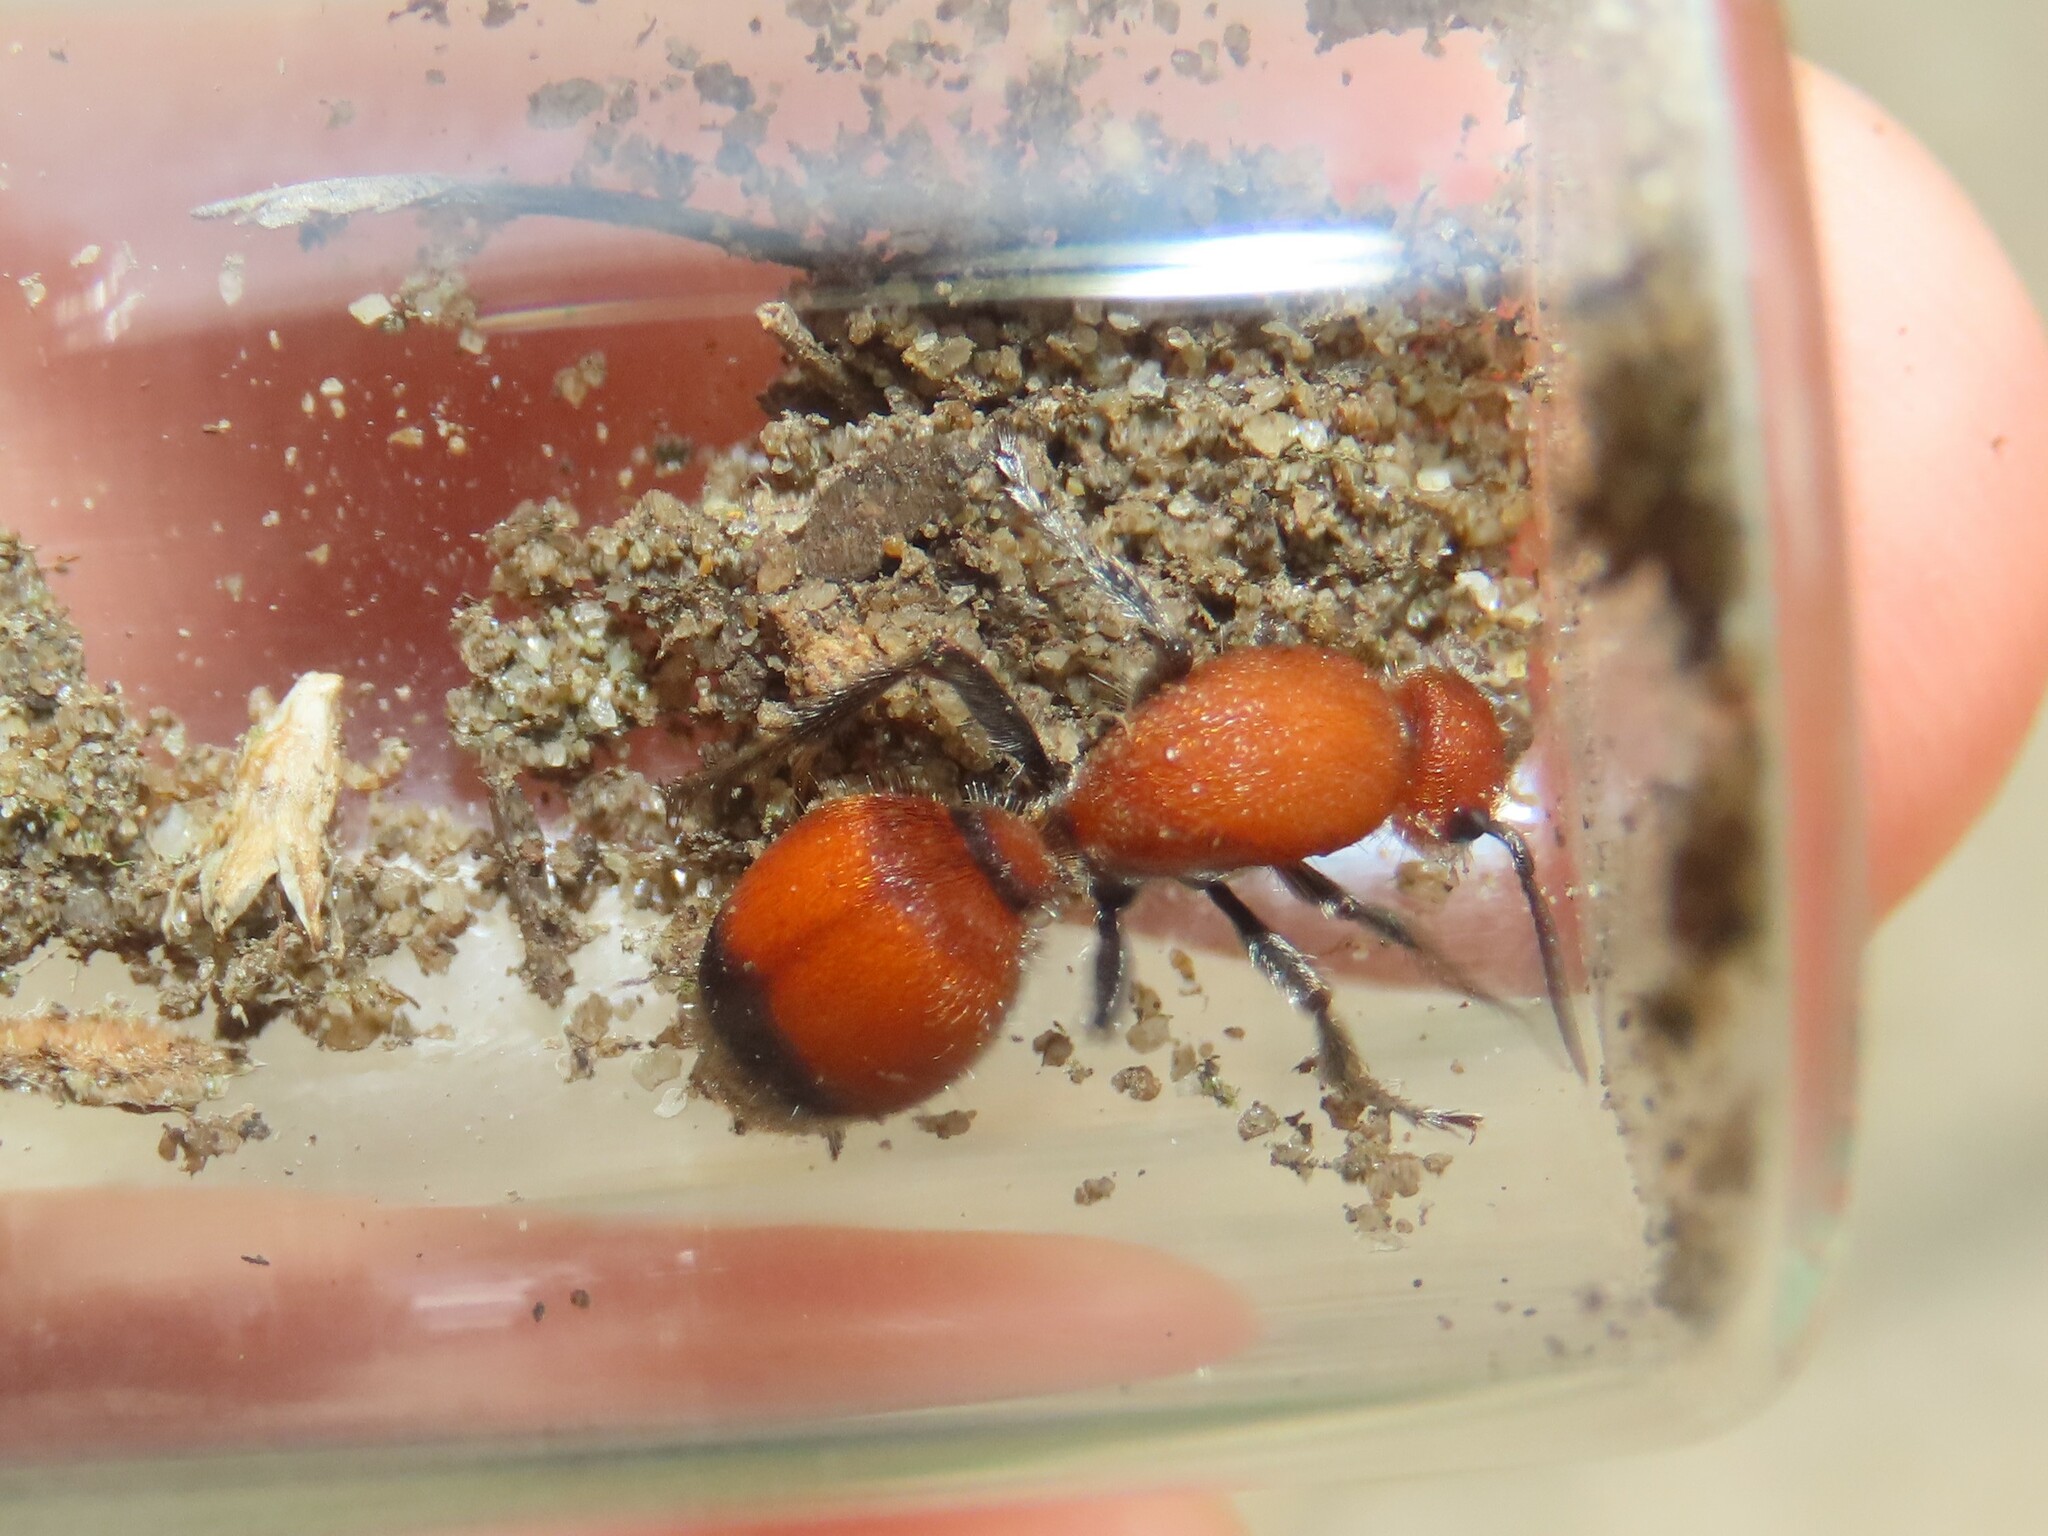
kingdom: Animalia
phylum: Arthropoda
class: Insecta
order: Hymenoptera
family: Mutillidae
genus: Dasymutilla
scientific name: Dasymutilla
